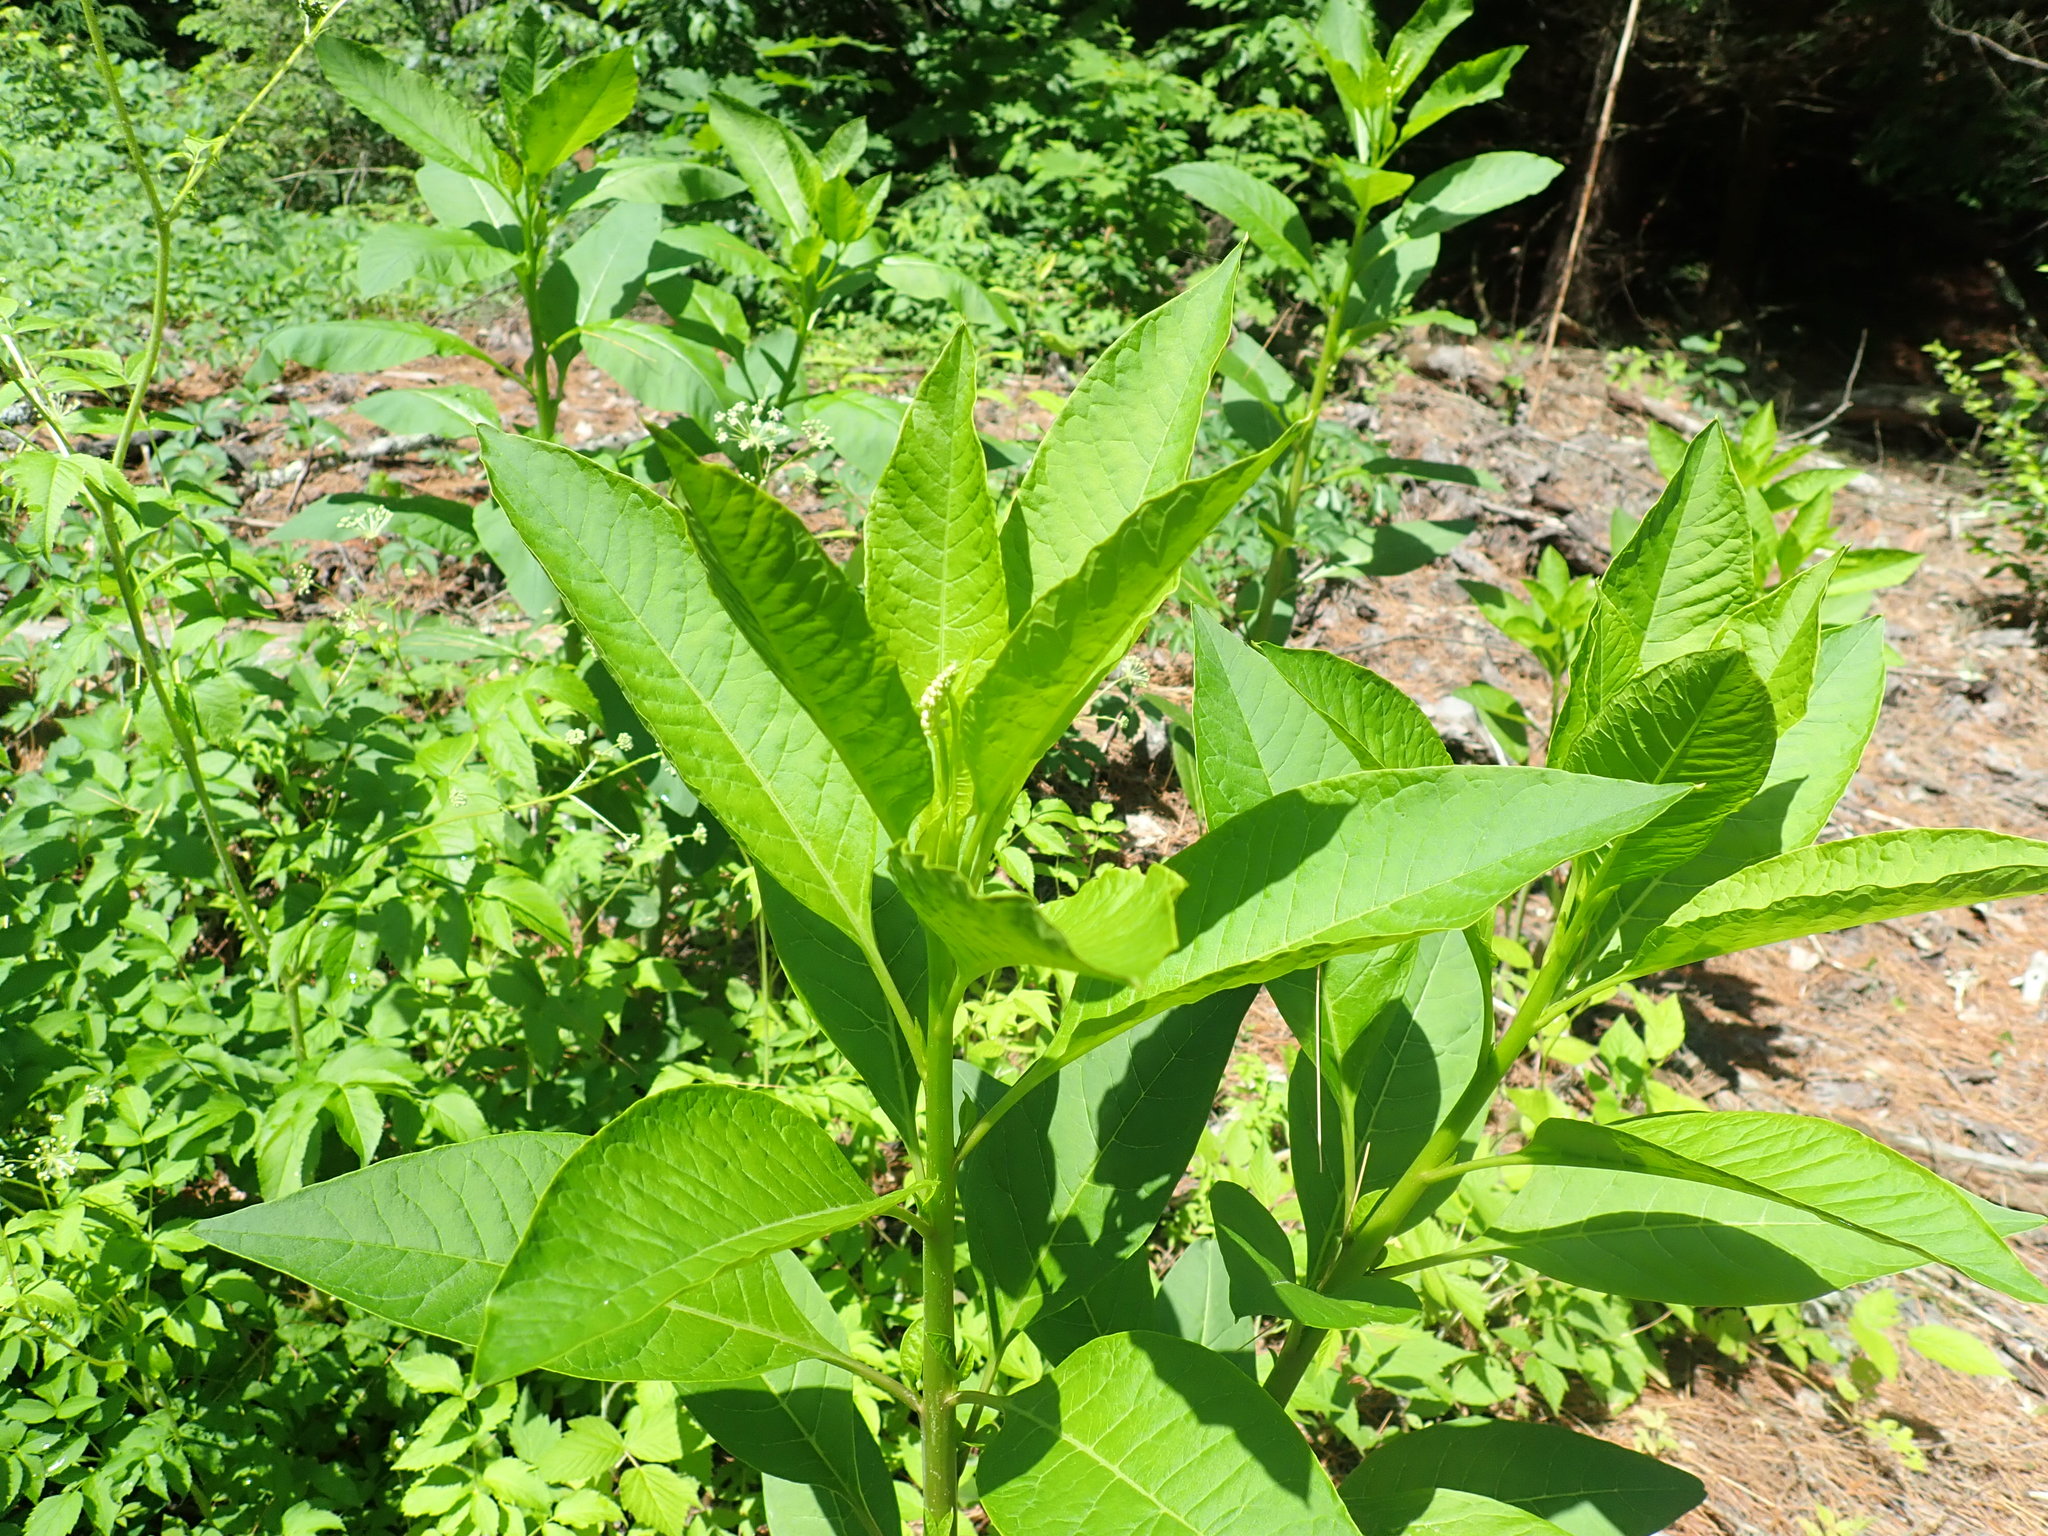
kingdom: Plantae
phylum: Tracheophyta
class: Magnoliopsida
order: Caryophyllales
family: Phytolaccaceae
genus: Phytolacca
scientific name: Phytolacca americana
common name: American pokeweed
